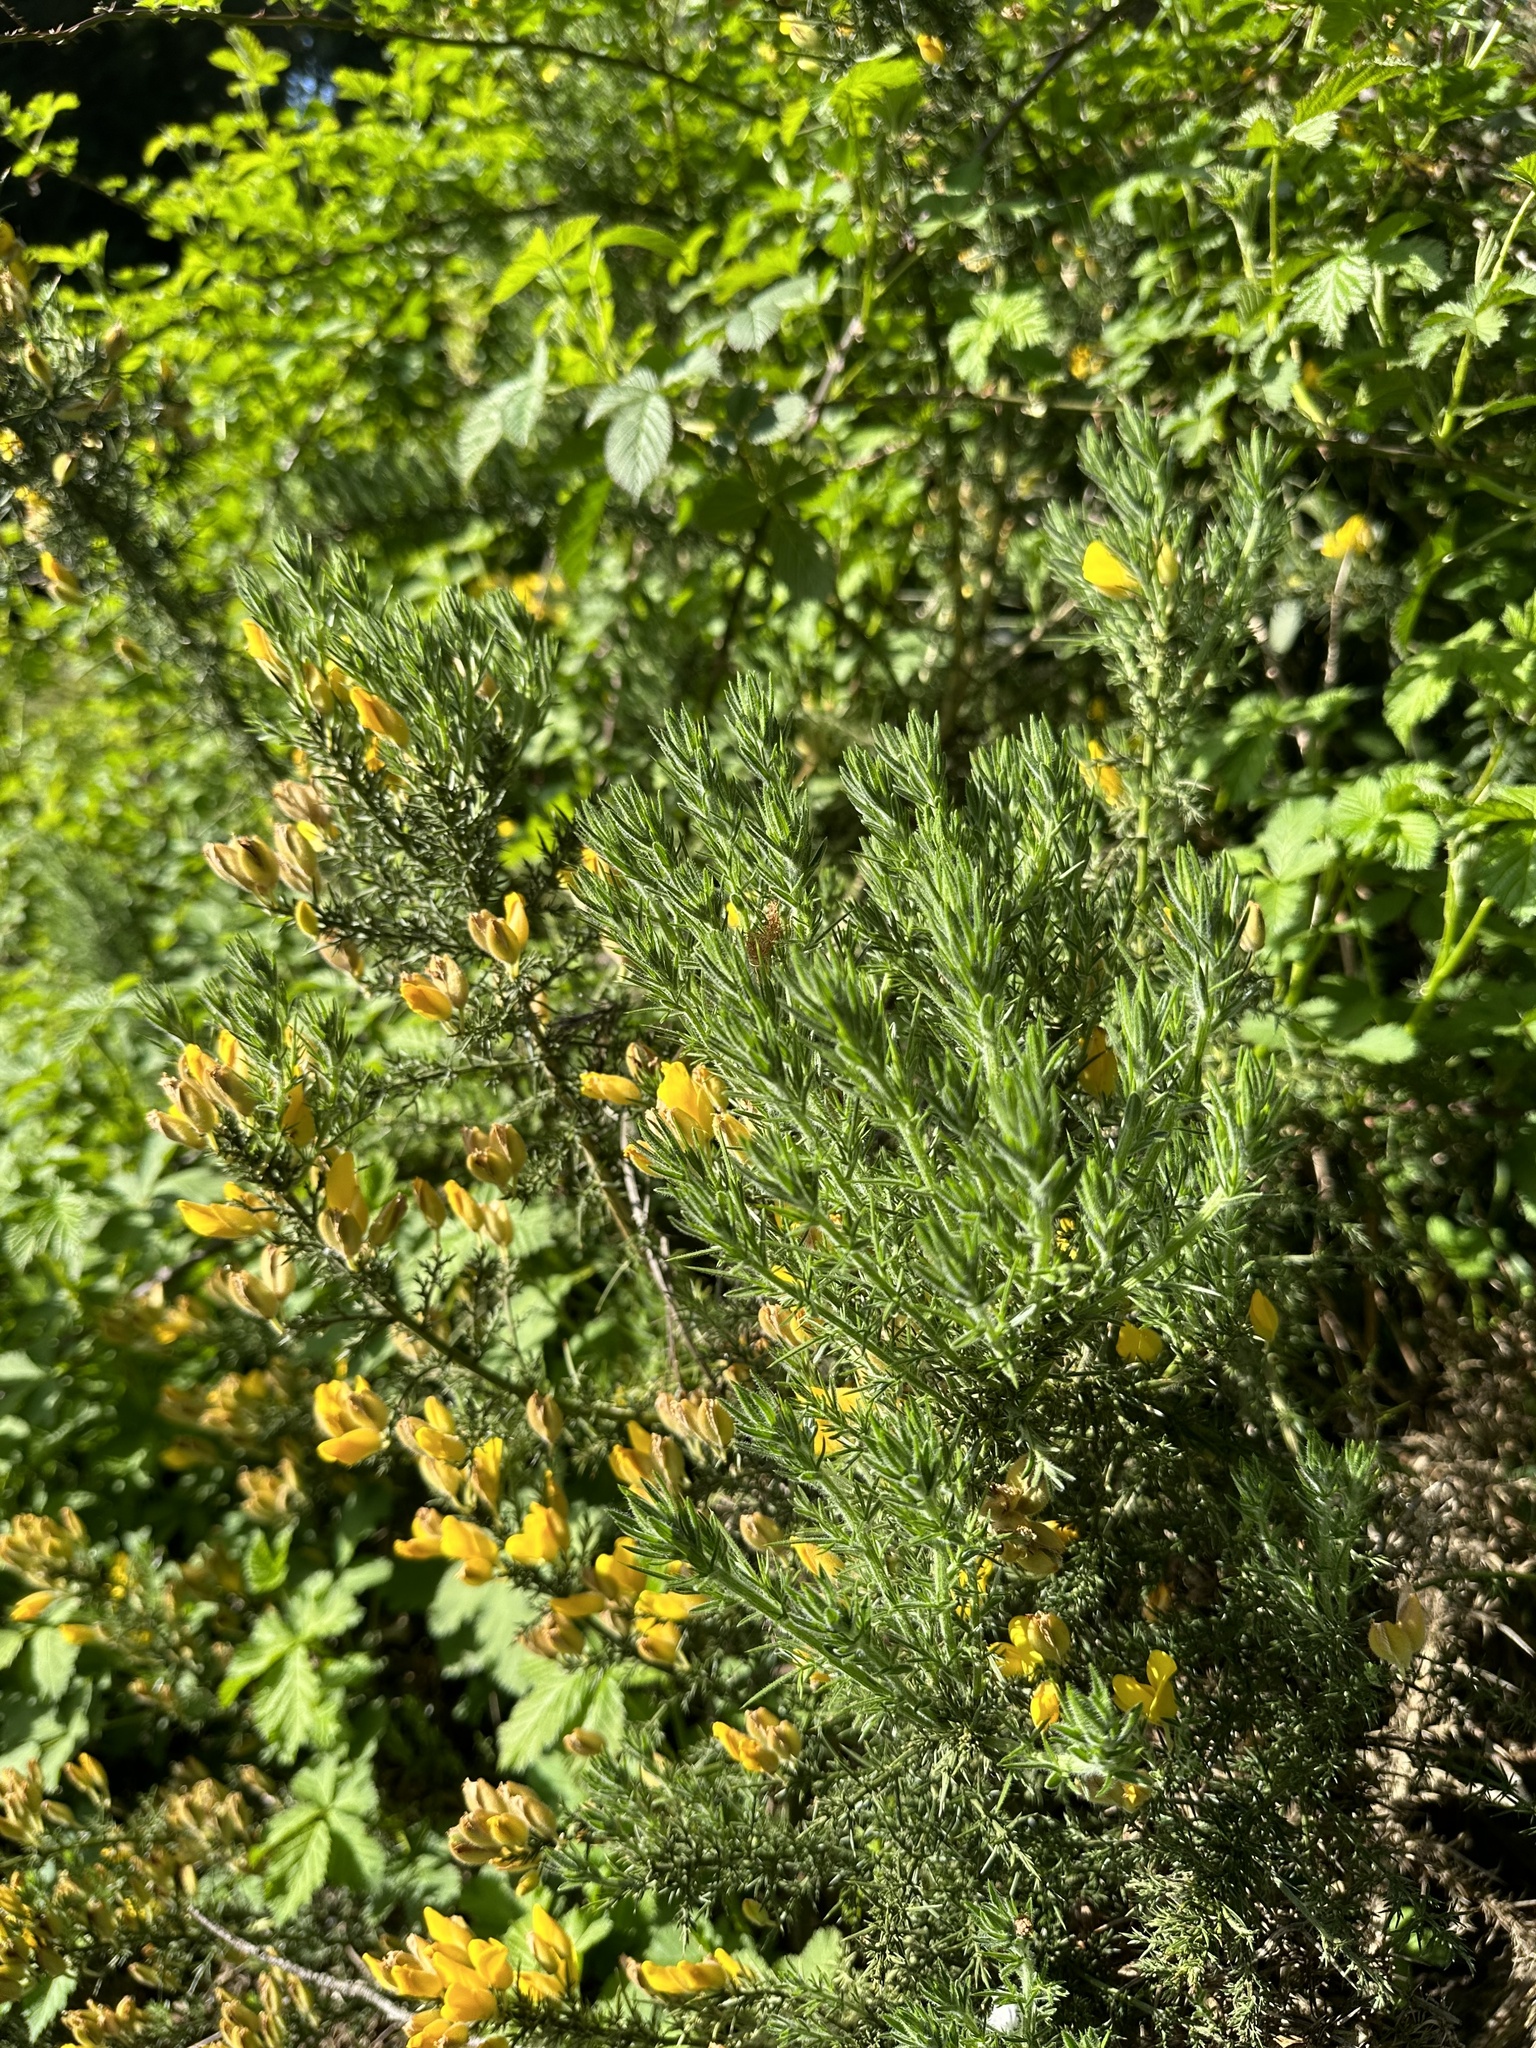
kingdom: Plantae
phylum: Tracheophyta
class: Magnoliopsida
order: Fabales
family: Fabaceae
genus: Ulex
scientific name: Ulex europaeus
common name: Common gorse
